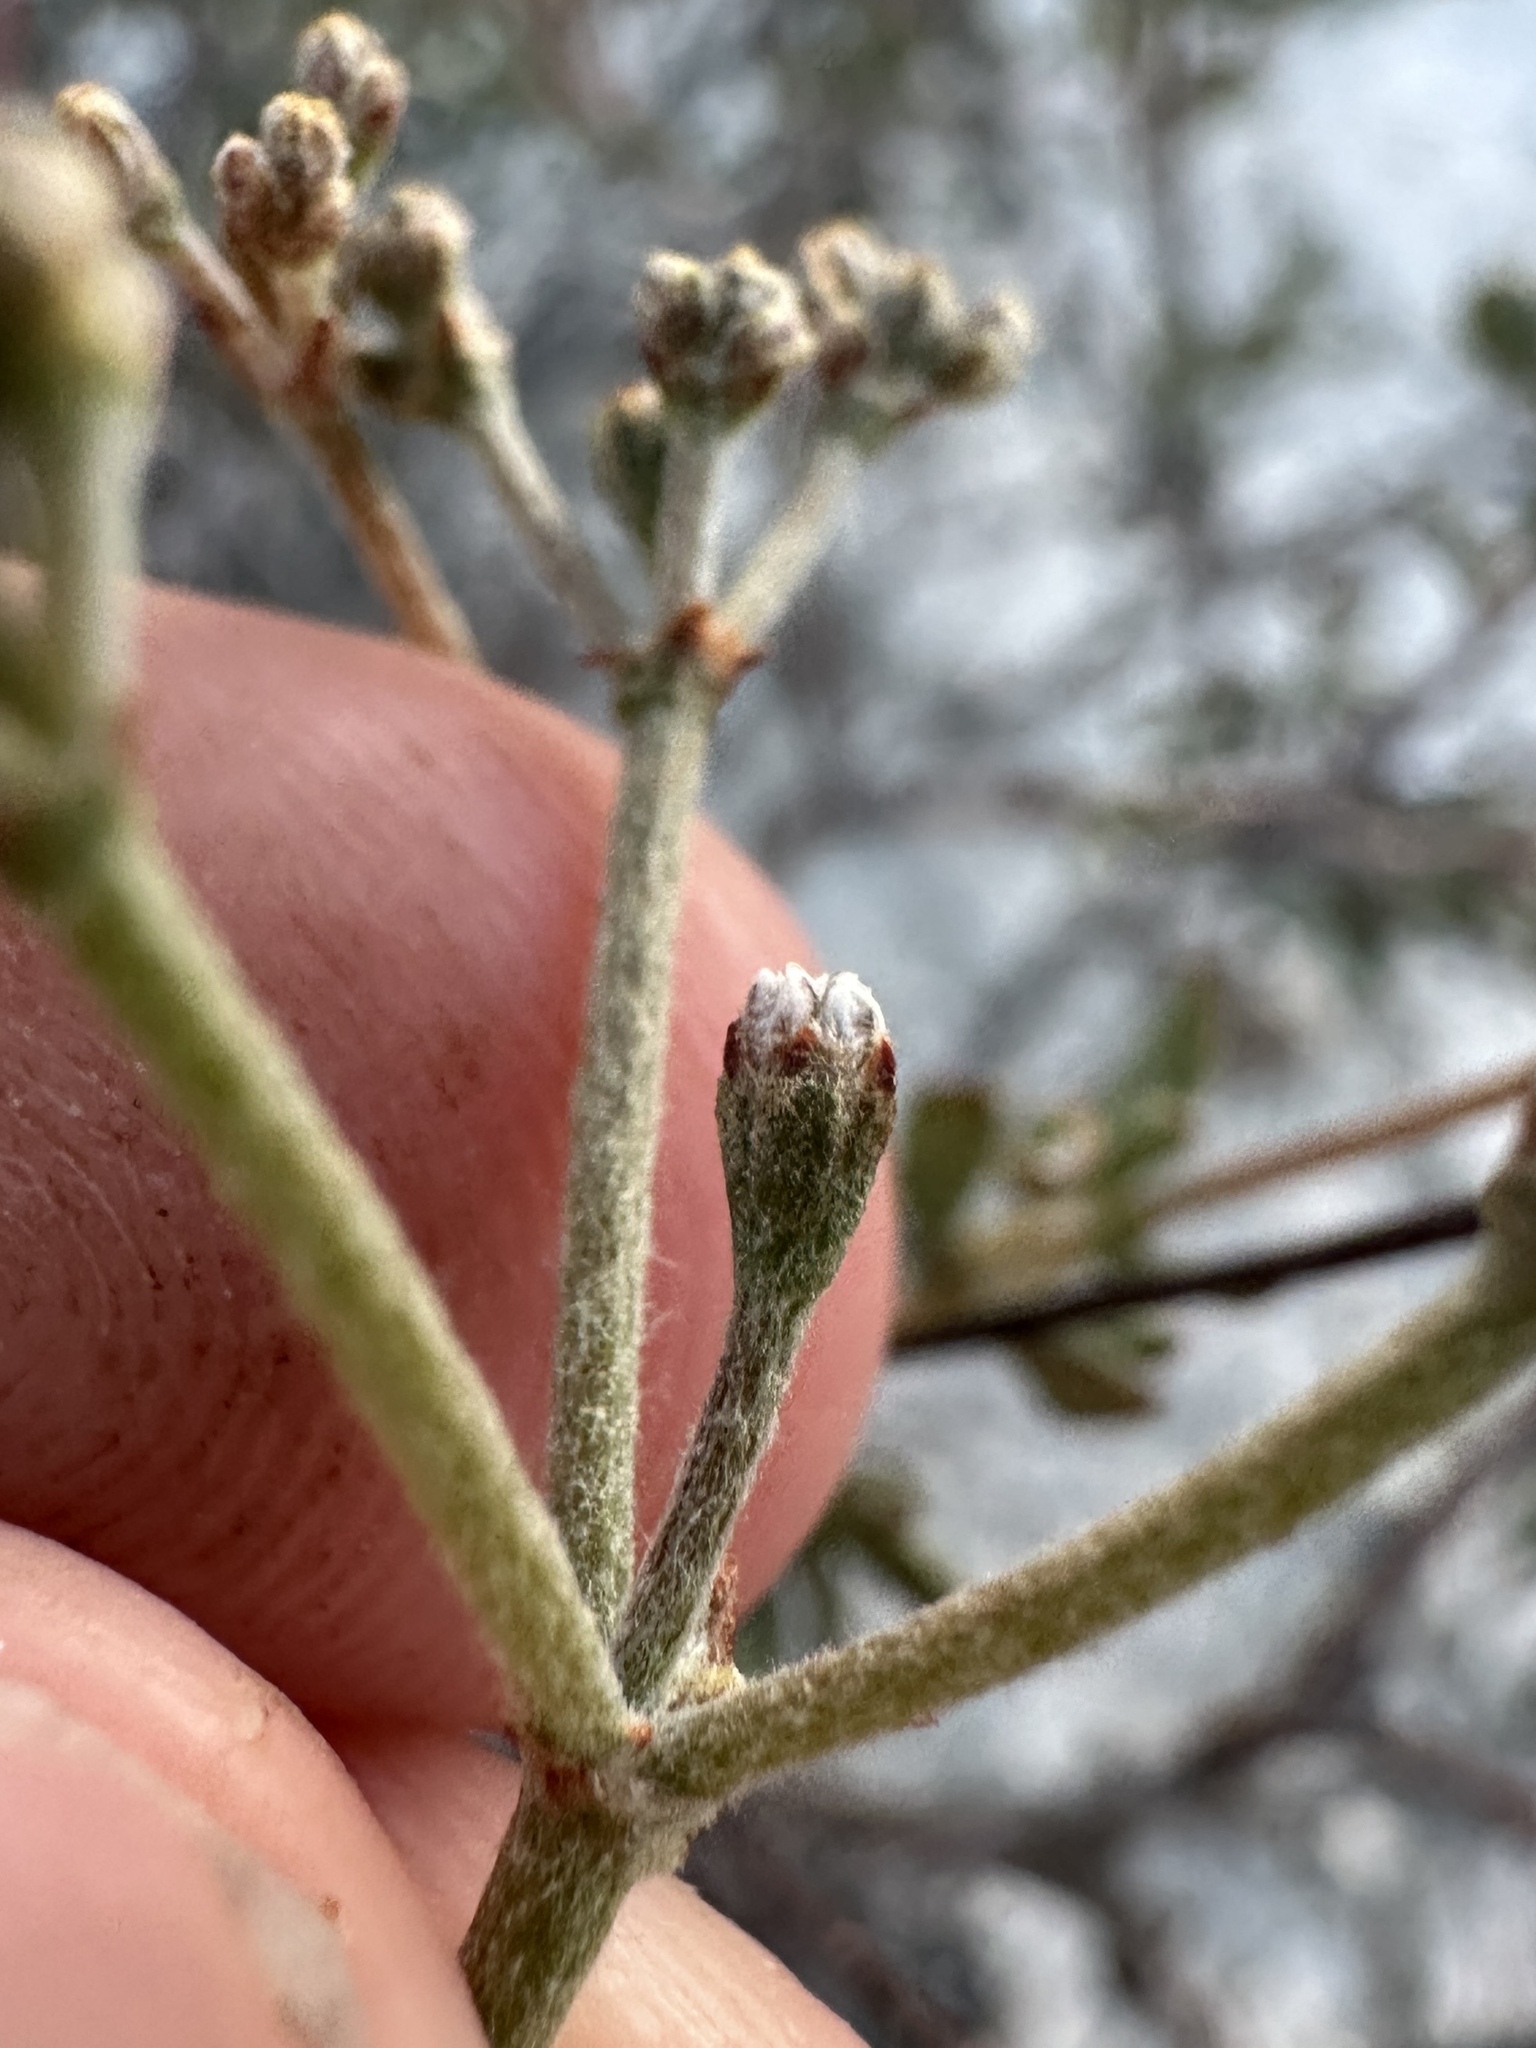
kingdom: Plantae
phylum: Tracheophyta
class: Magnoliopsida
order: Caryophyllales
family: Polygonaceae
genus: Eriogonum
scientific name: Eriogonum microtheca
